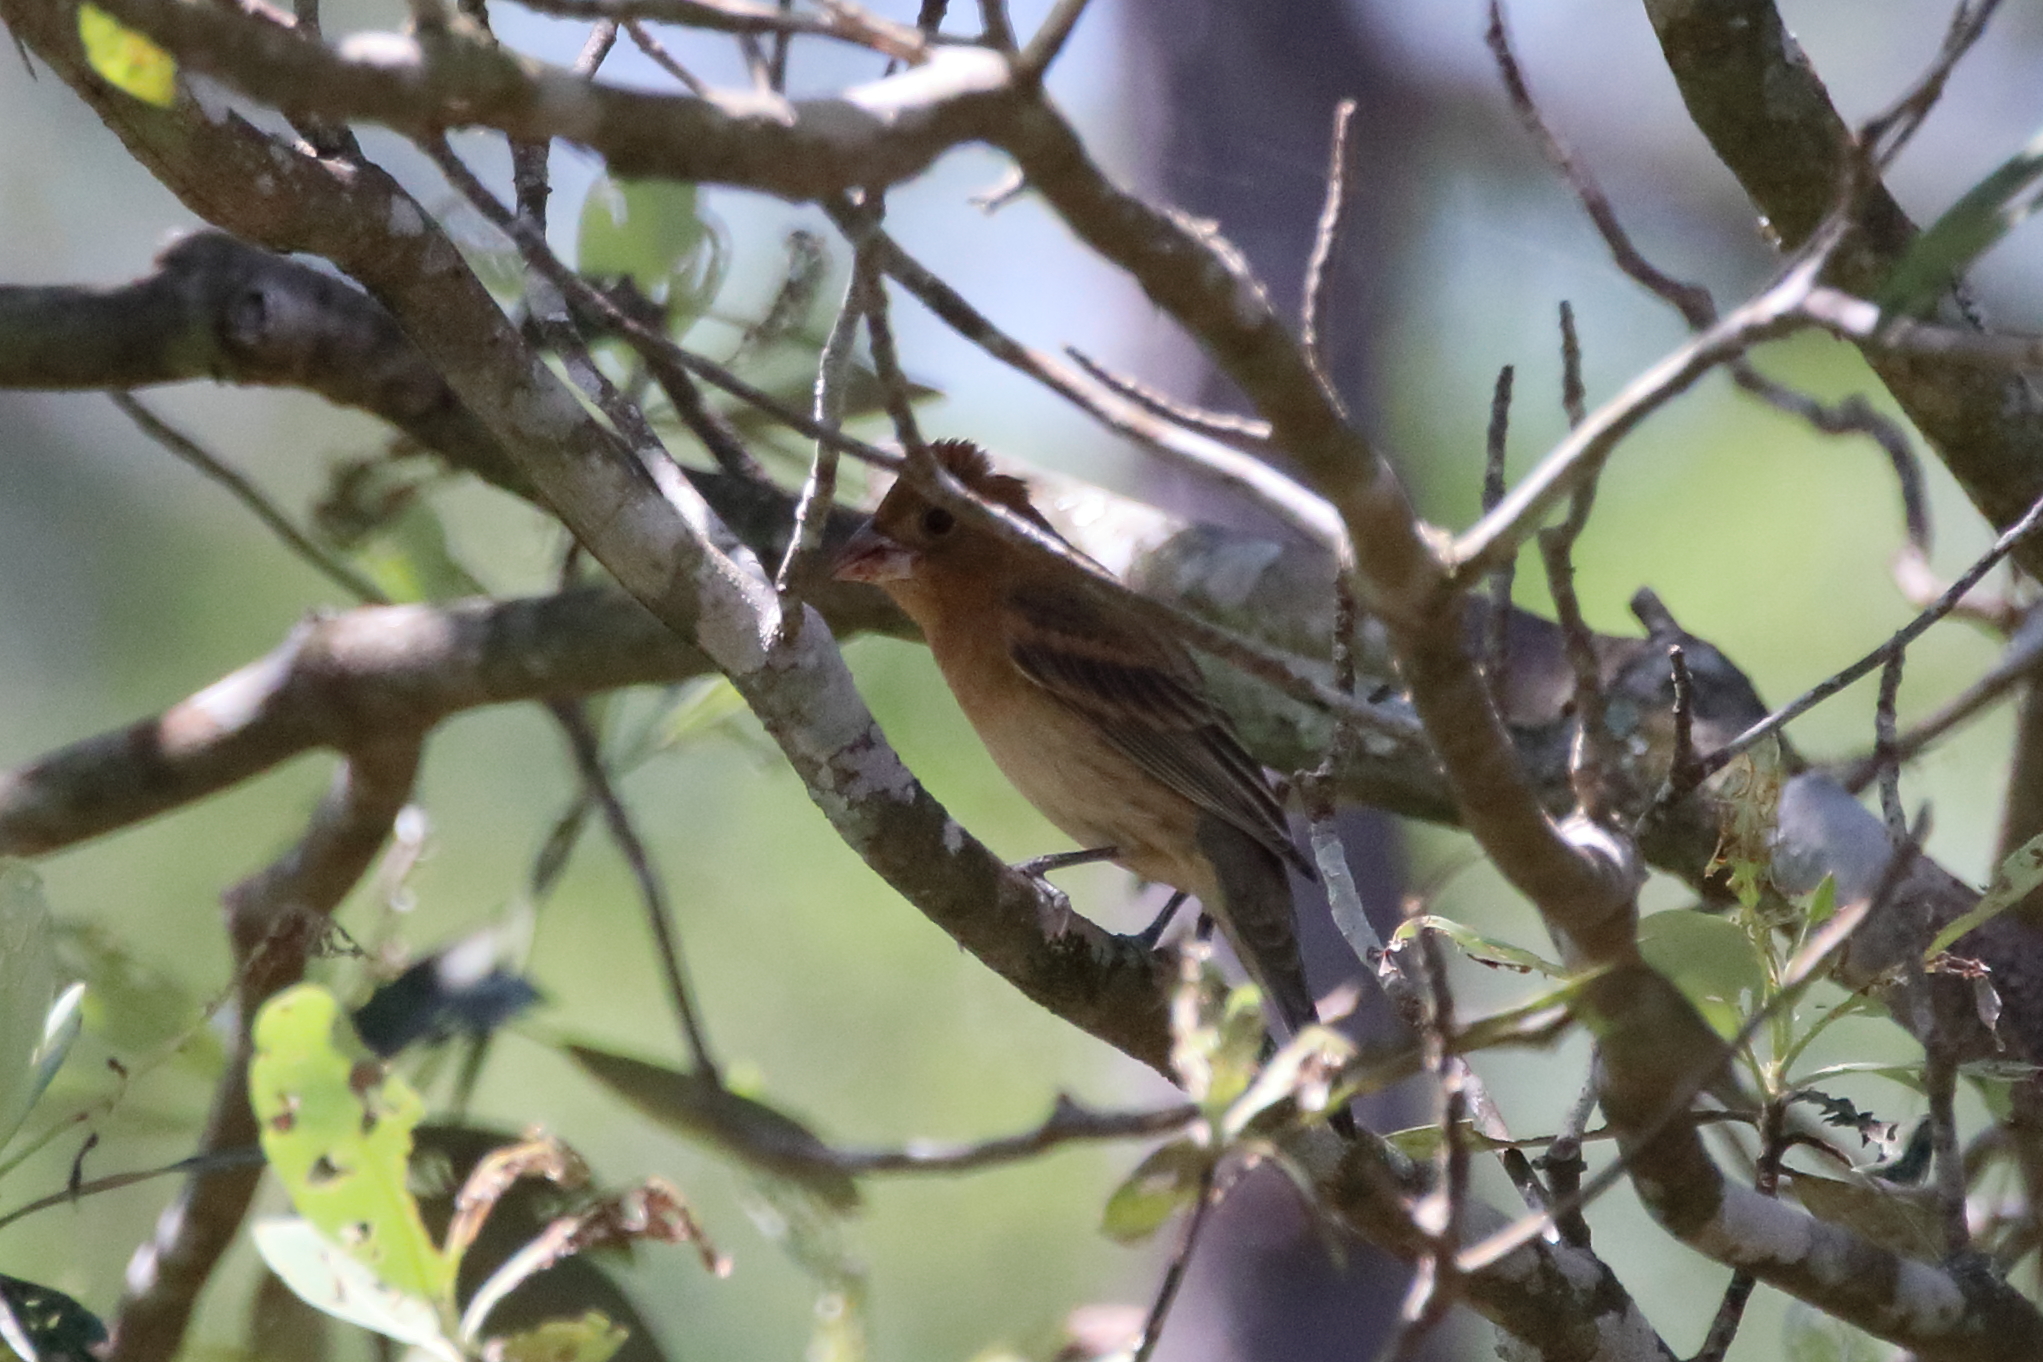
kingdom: Animalia
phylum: Chordata
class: Aves
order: Passeriformes
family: Cardinalidae
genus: Passerina
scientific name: Passerina caerulea
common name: Blue grosbeak
